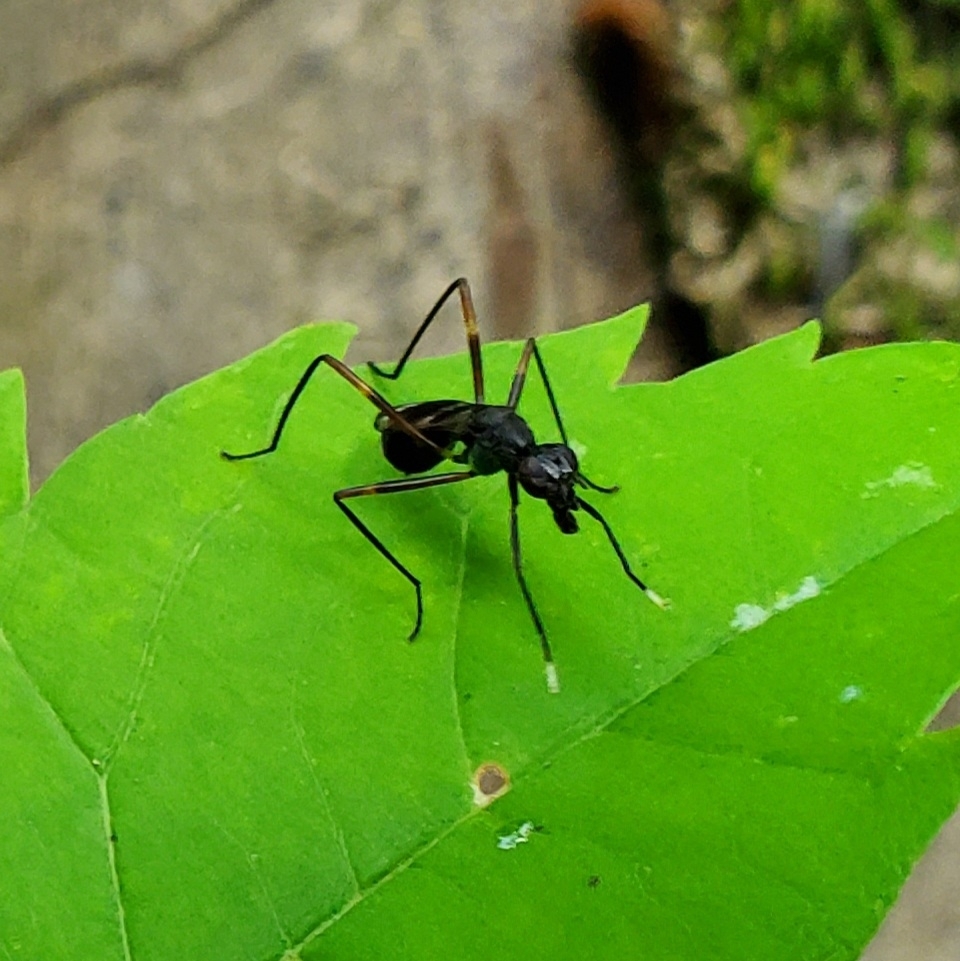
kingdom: Animalia
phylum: Arthropoda
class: Insecta
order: Diptera
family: Micropezidae
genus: Taeniaptera
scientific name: Taeniaptera trivittata
